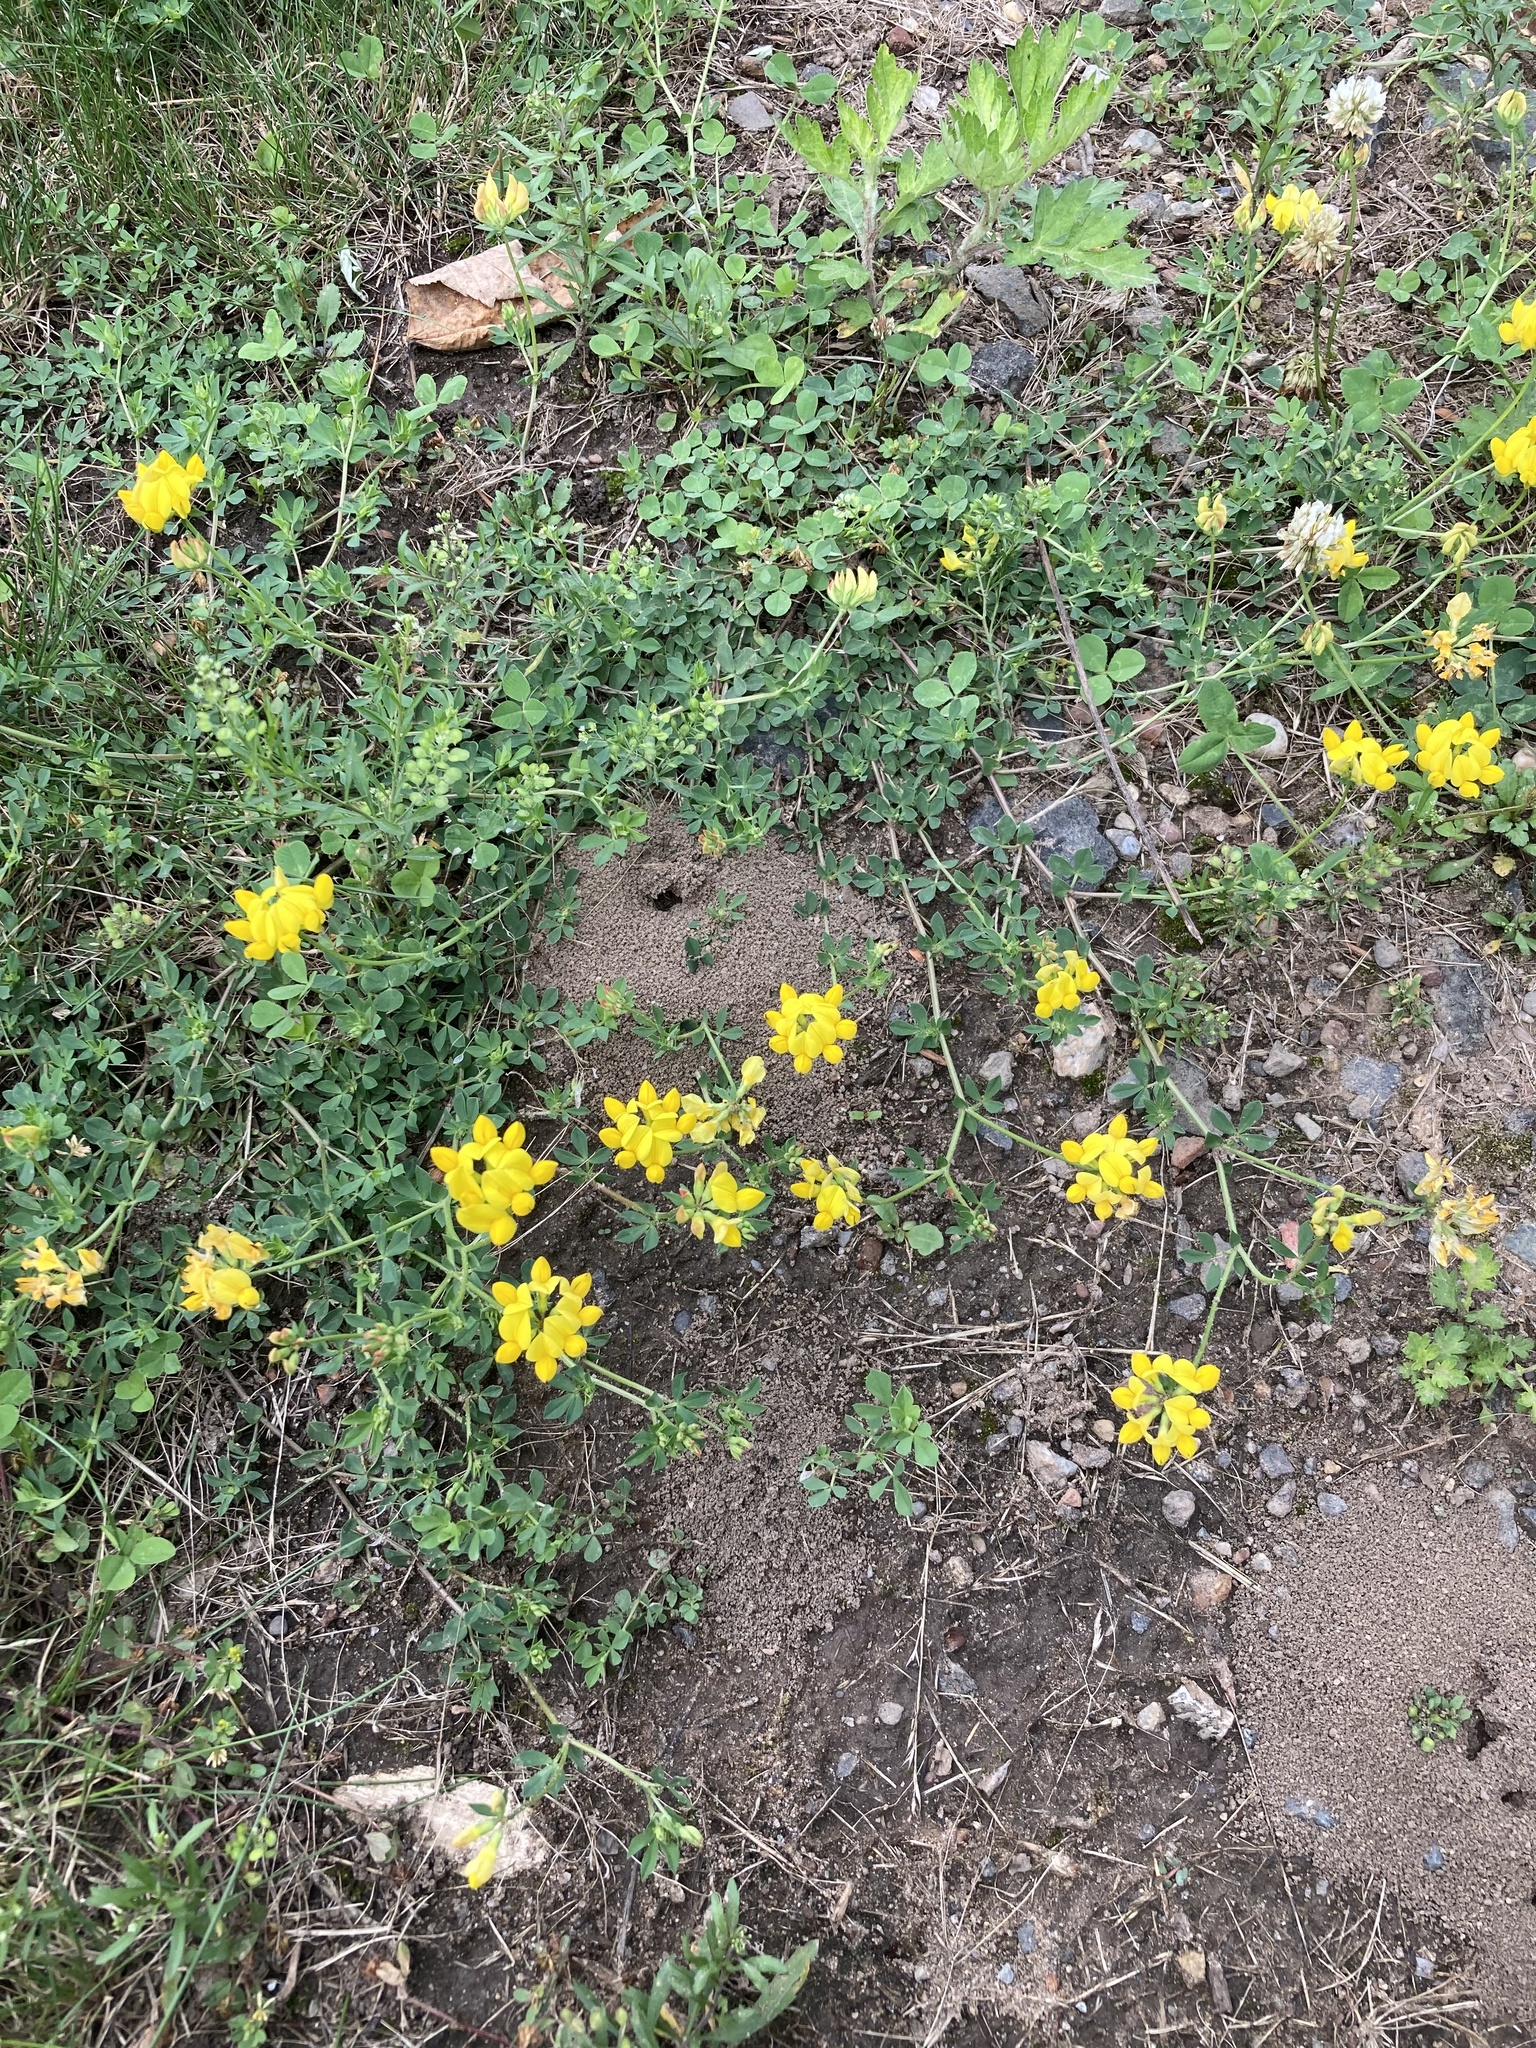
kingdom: Plantae
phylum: Tracheophyta
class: Magnoliopsida
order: Fabales
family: Fabaceae
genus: Lotus
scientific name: Lotus corniculatus
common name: Common bird's-foot-trefoil
